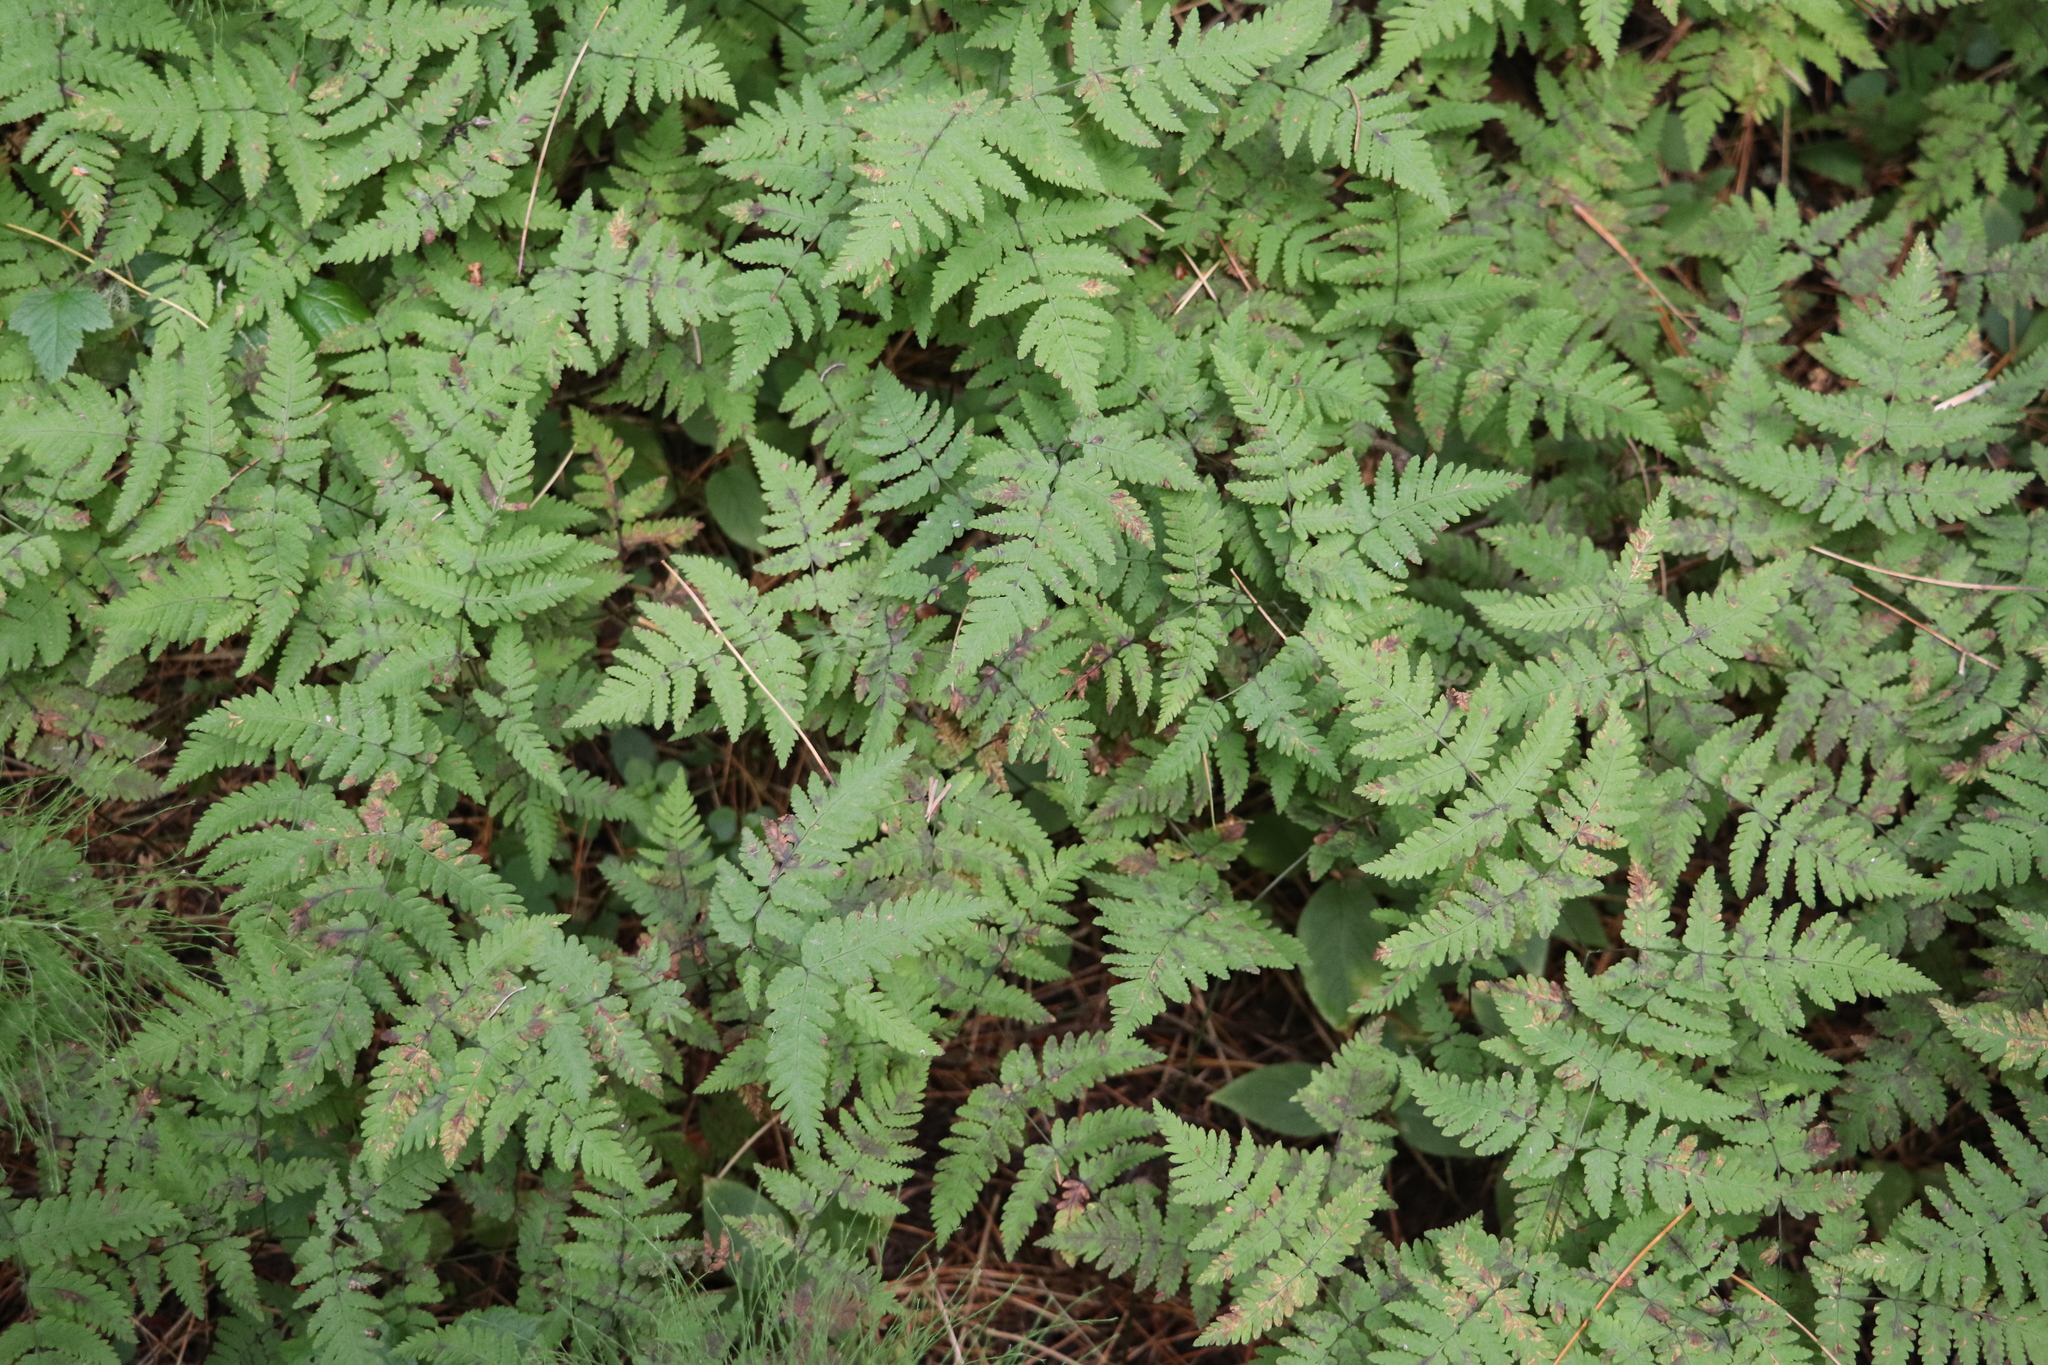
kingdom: Plantae
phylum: Tracheophyta
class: Polypodiopsida
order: Polypodiales
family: Cystopteridaceae
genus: Gymnocarpium
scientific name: Gymnocarpium dryopteris
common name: Oak fern
